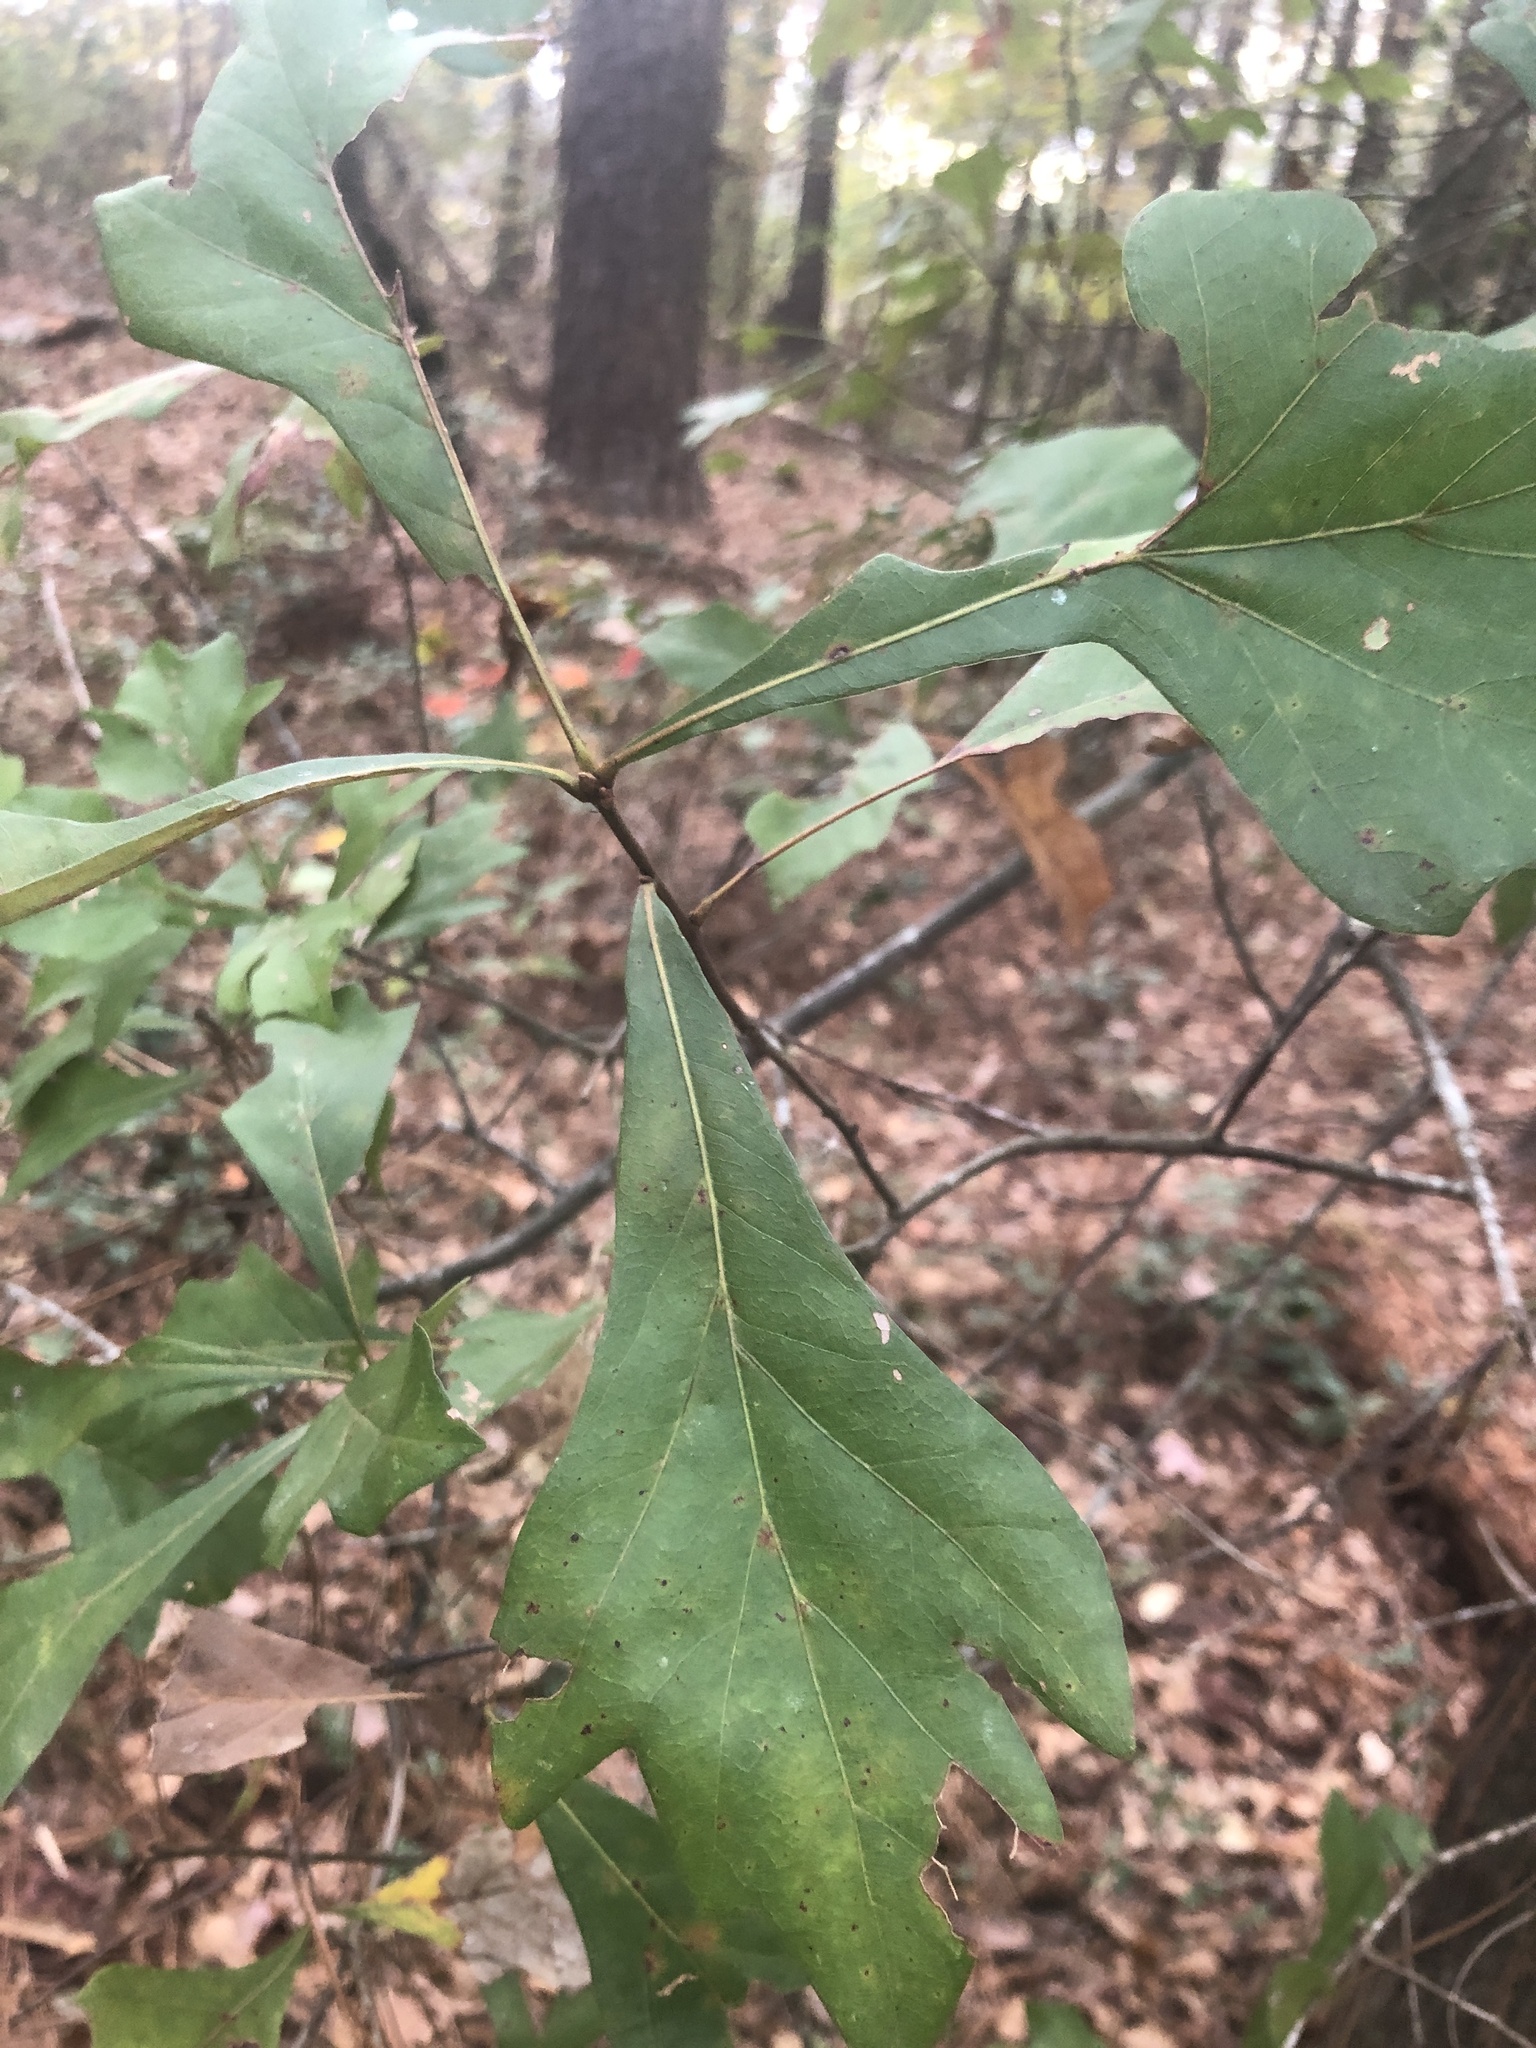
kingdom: Plantae
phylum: Tracheophyta
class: Magnoliopsida
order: Fagales
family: Fagaceae
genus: Quercus
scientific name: Quercus nigra
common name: Water oak
